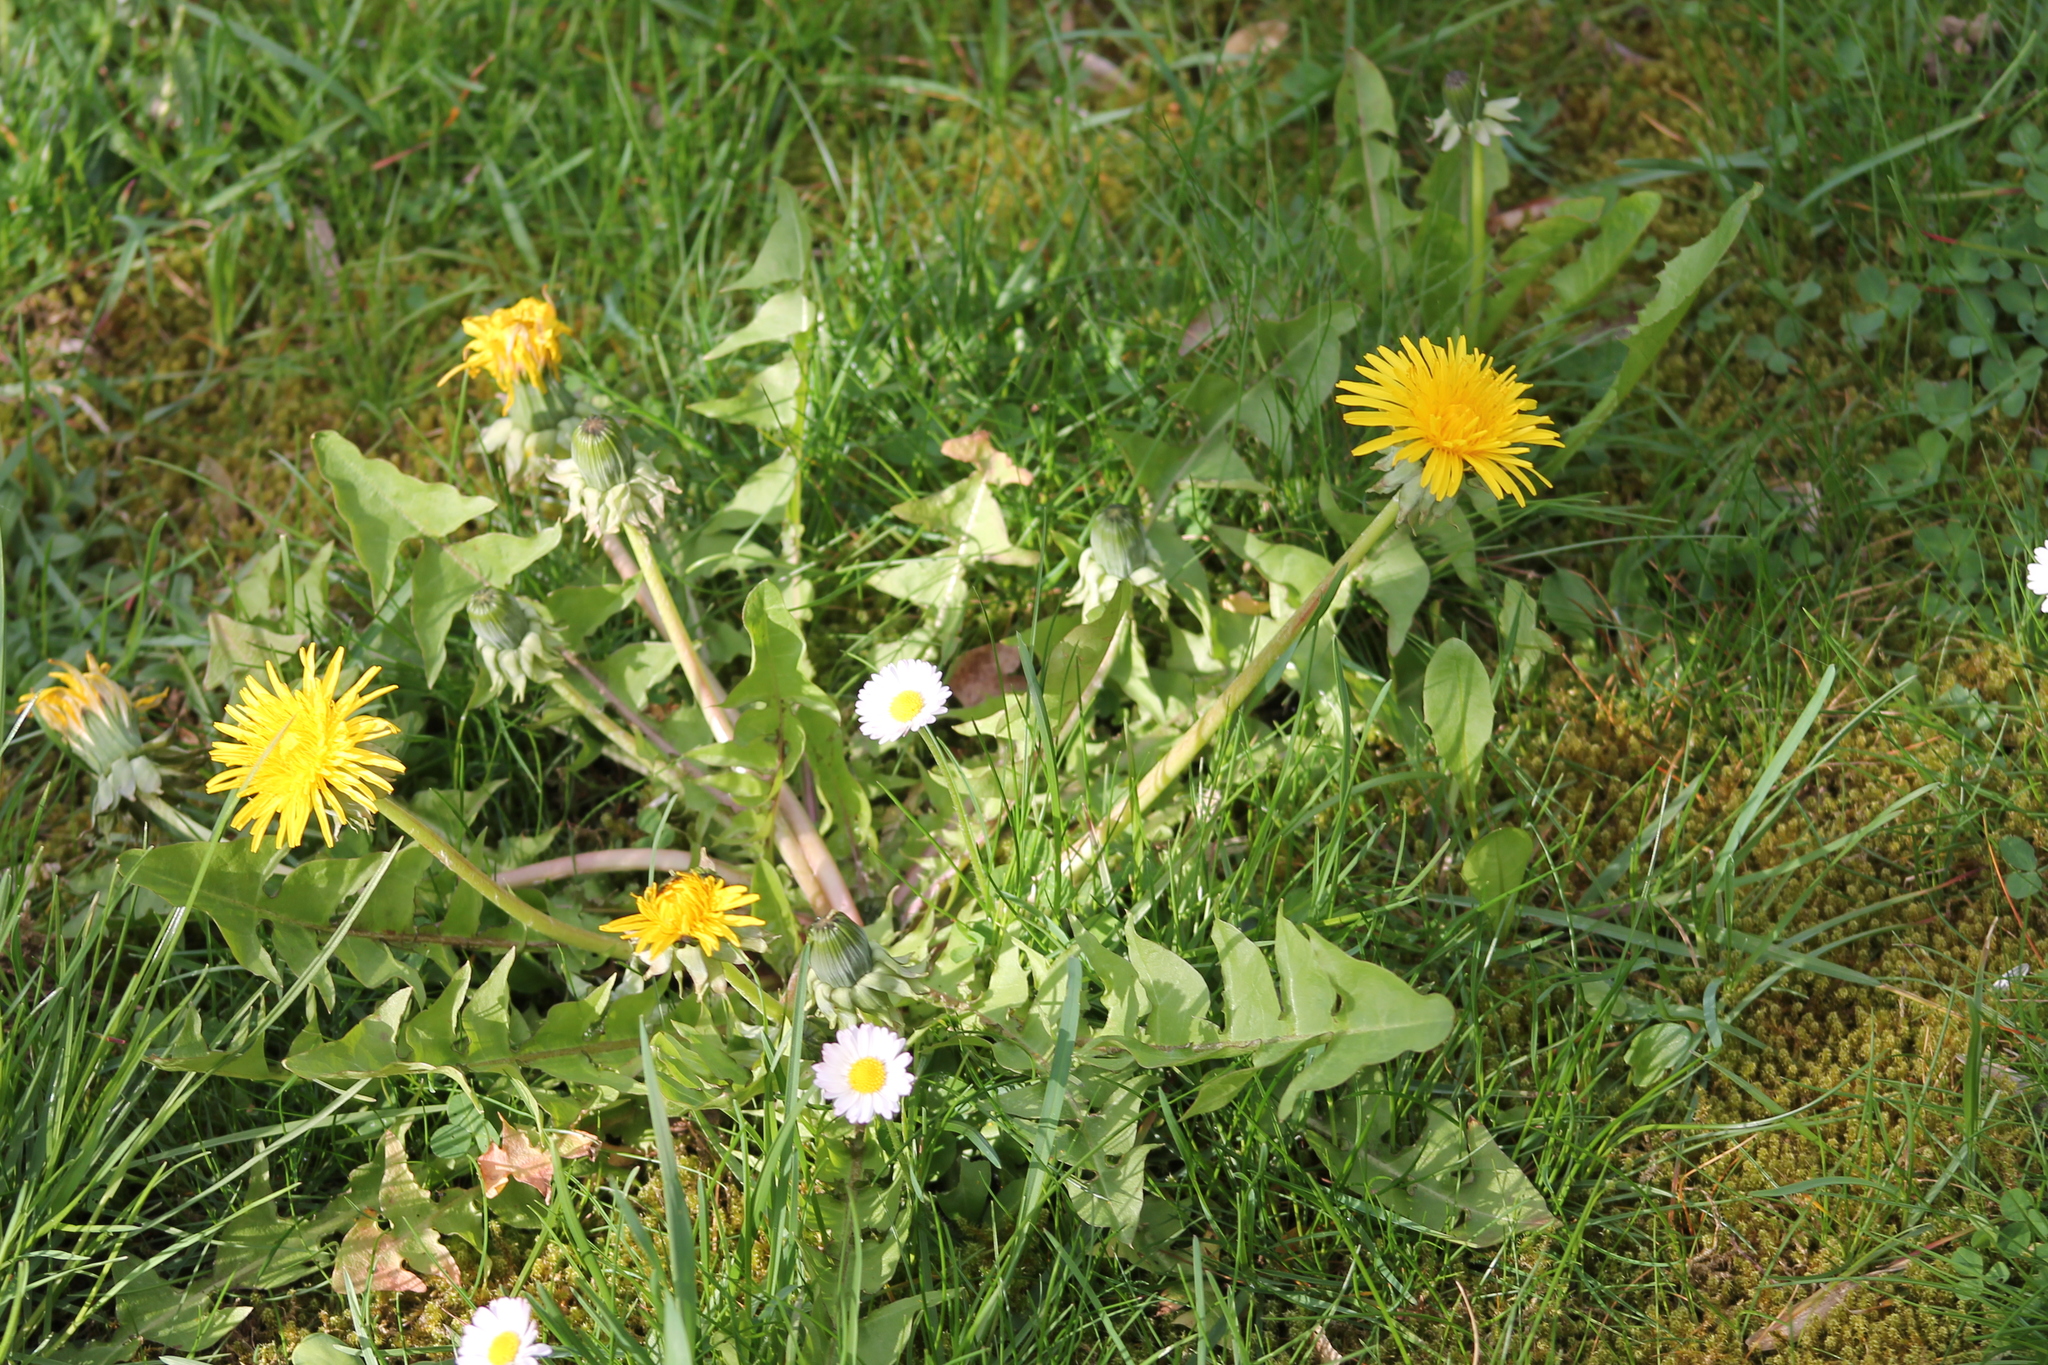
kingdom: Plantae
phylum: Tracheophyta
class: Magnoliopsida
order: Asterales
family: Asteraceae
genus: Taraxacum
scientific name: Taraxacum officinale
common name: Common dandelion
